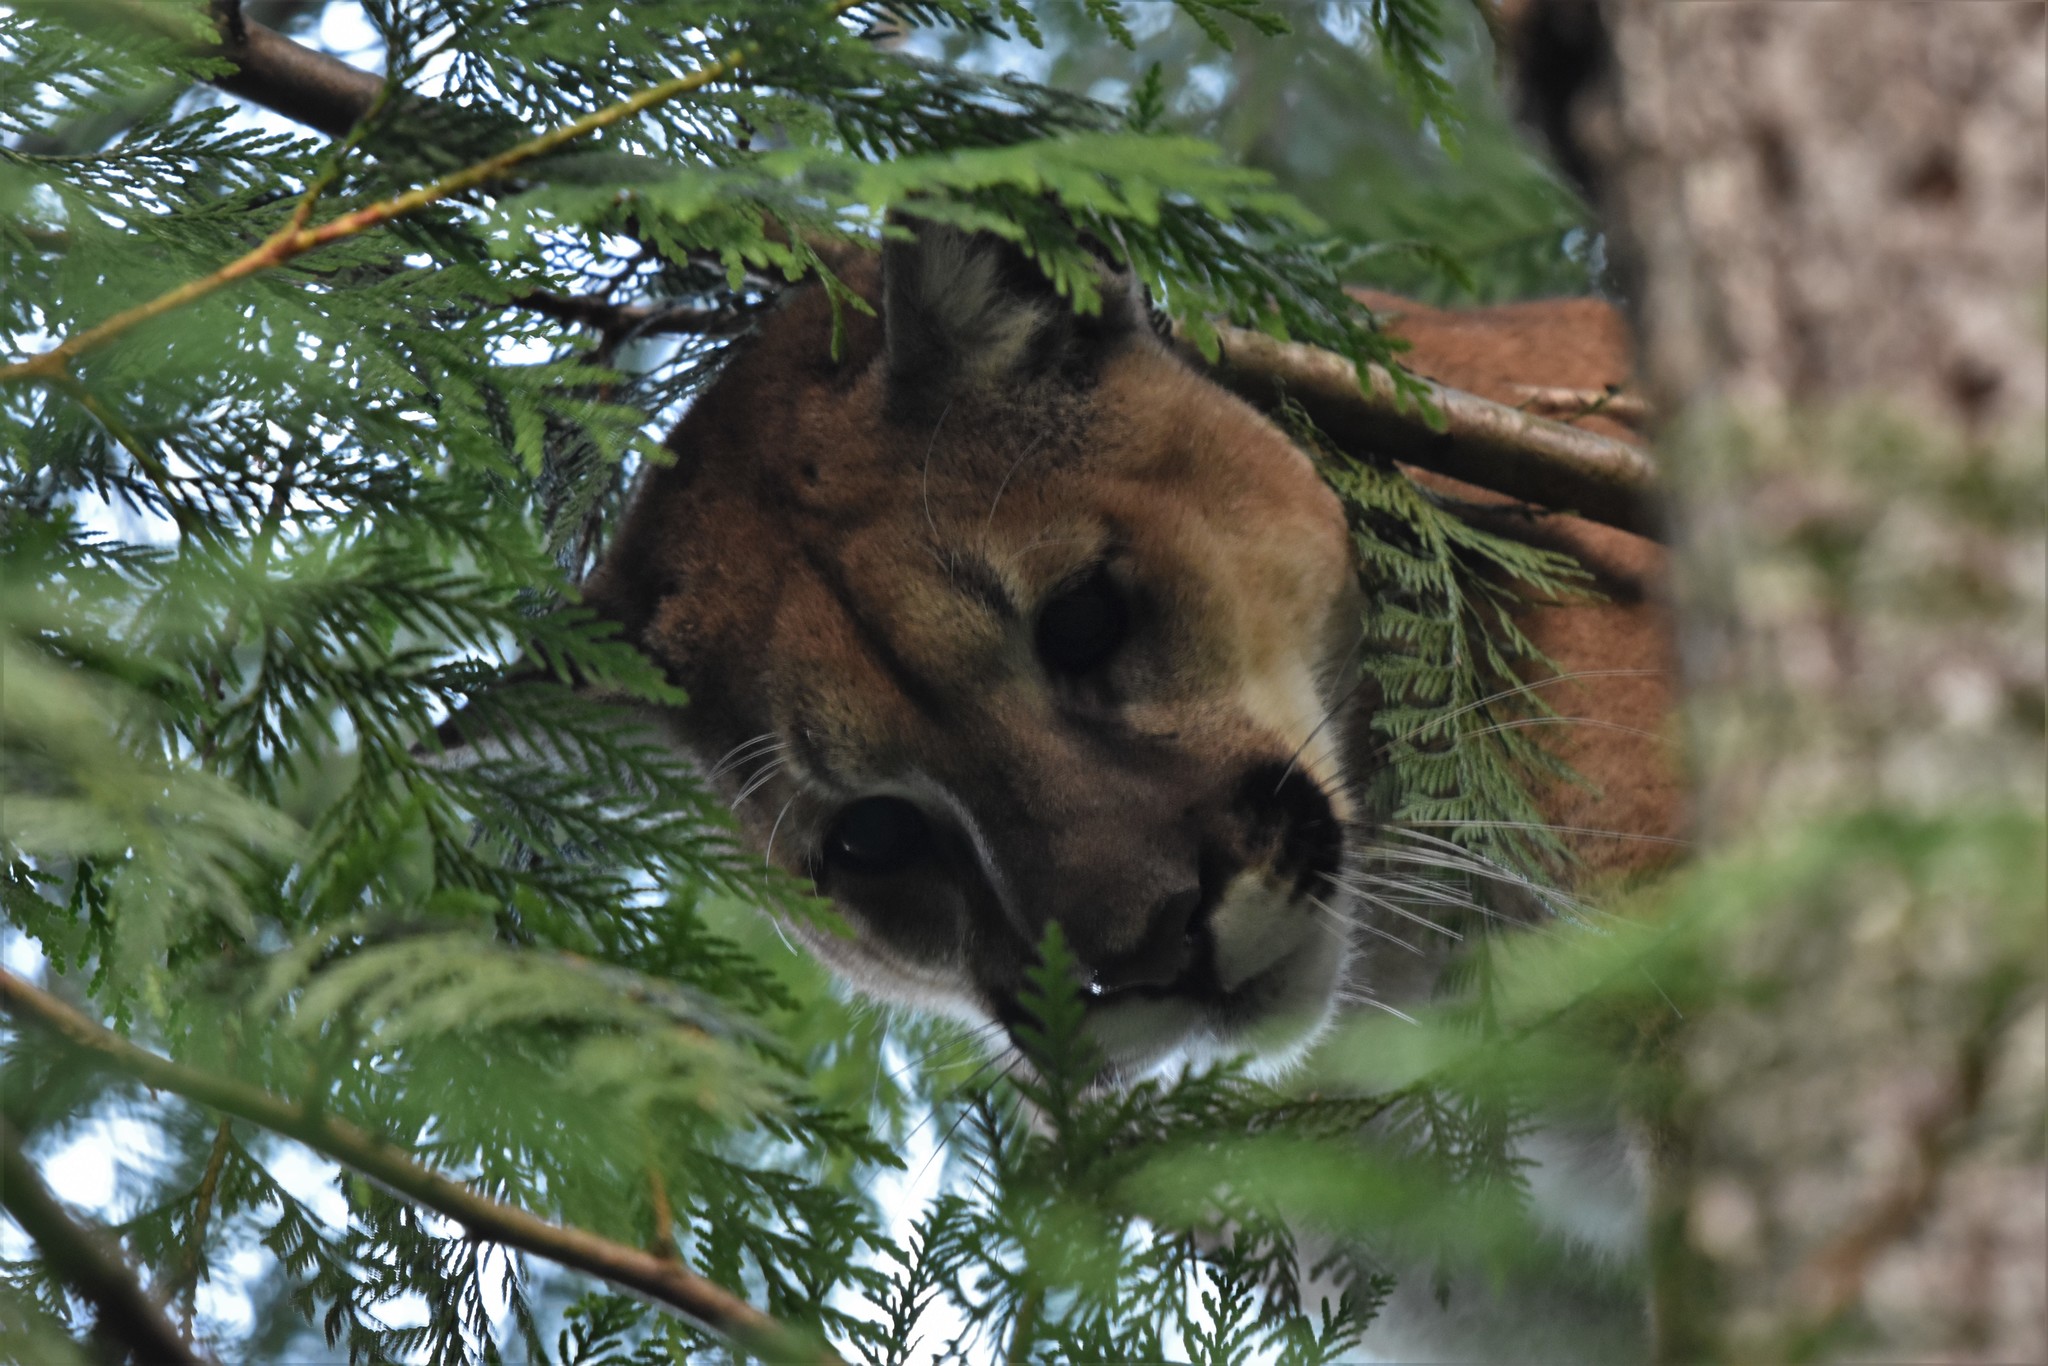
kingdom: Animalia
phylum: Chordata
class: Mammalia
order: Carnivora
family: Felidae
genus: Puma
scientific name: Puma concolor
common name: Puma
